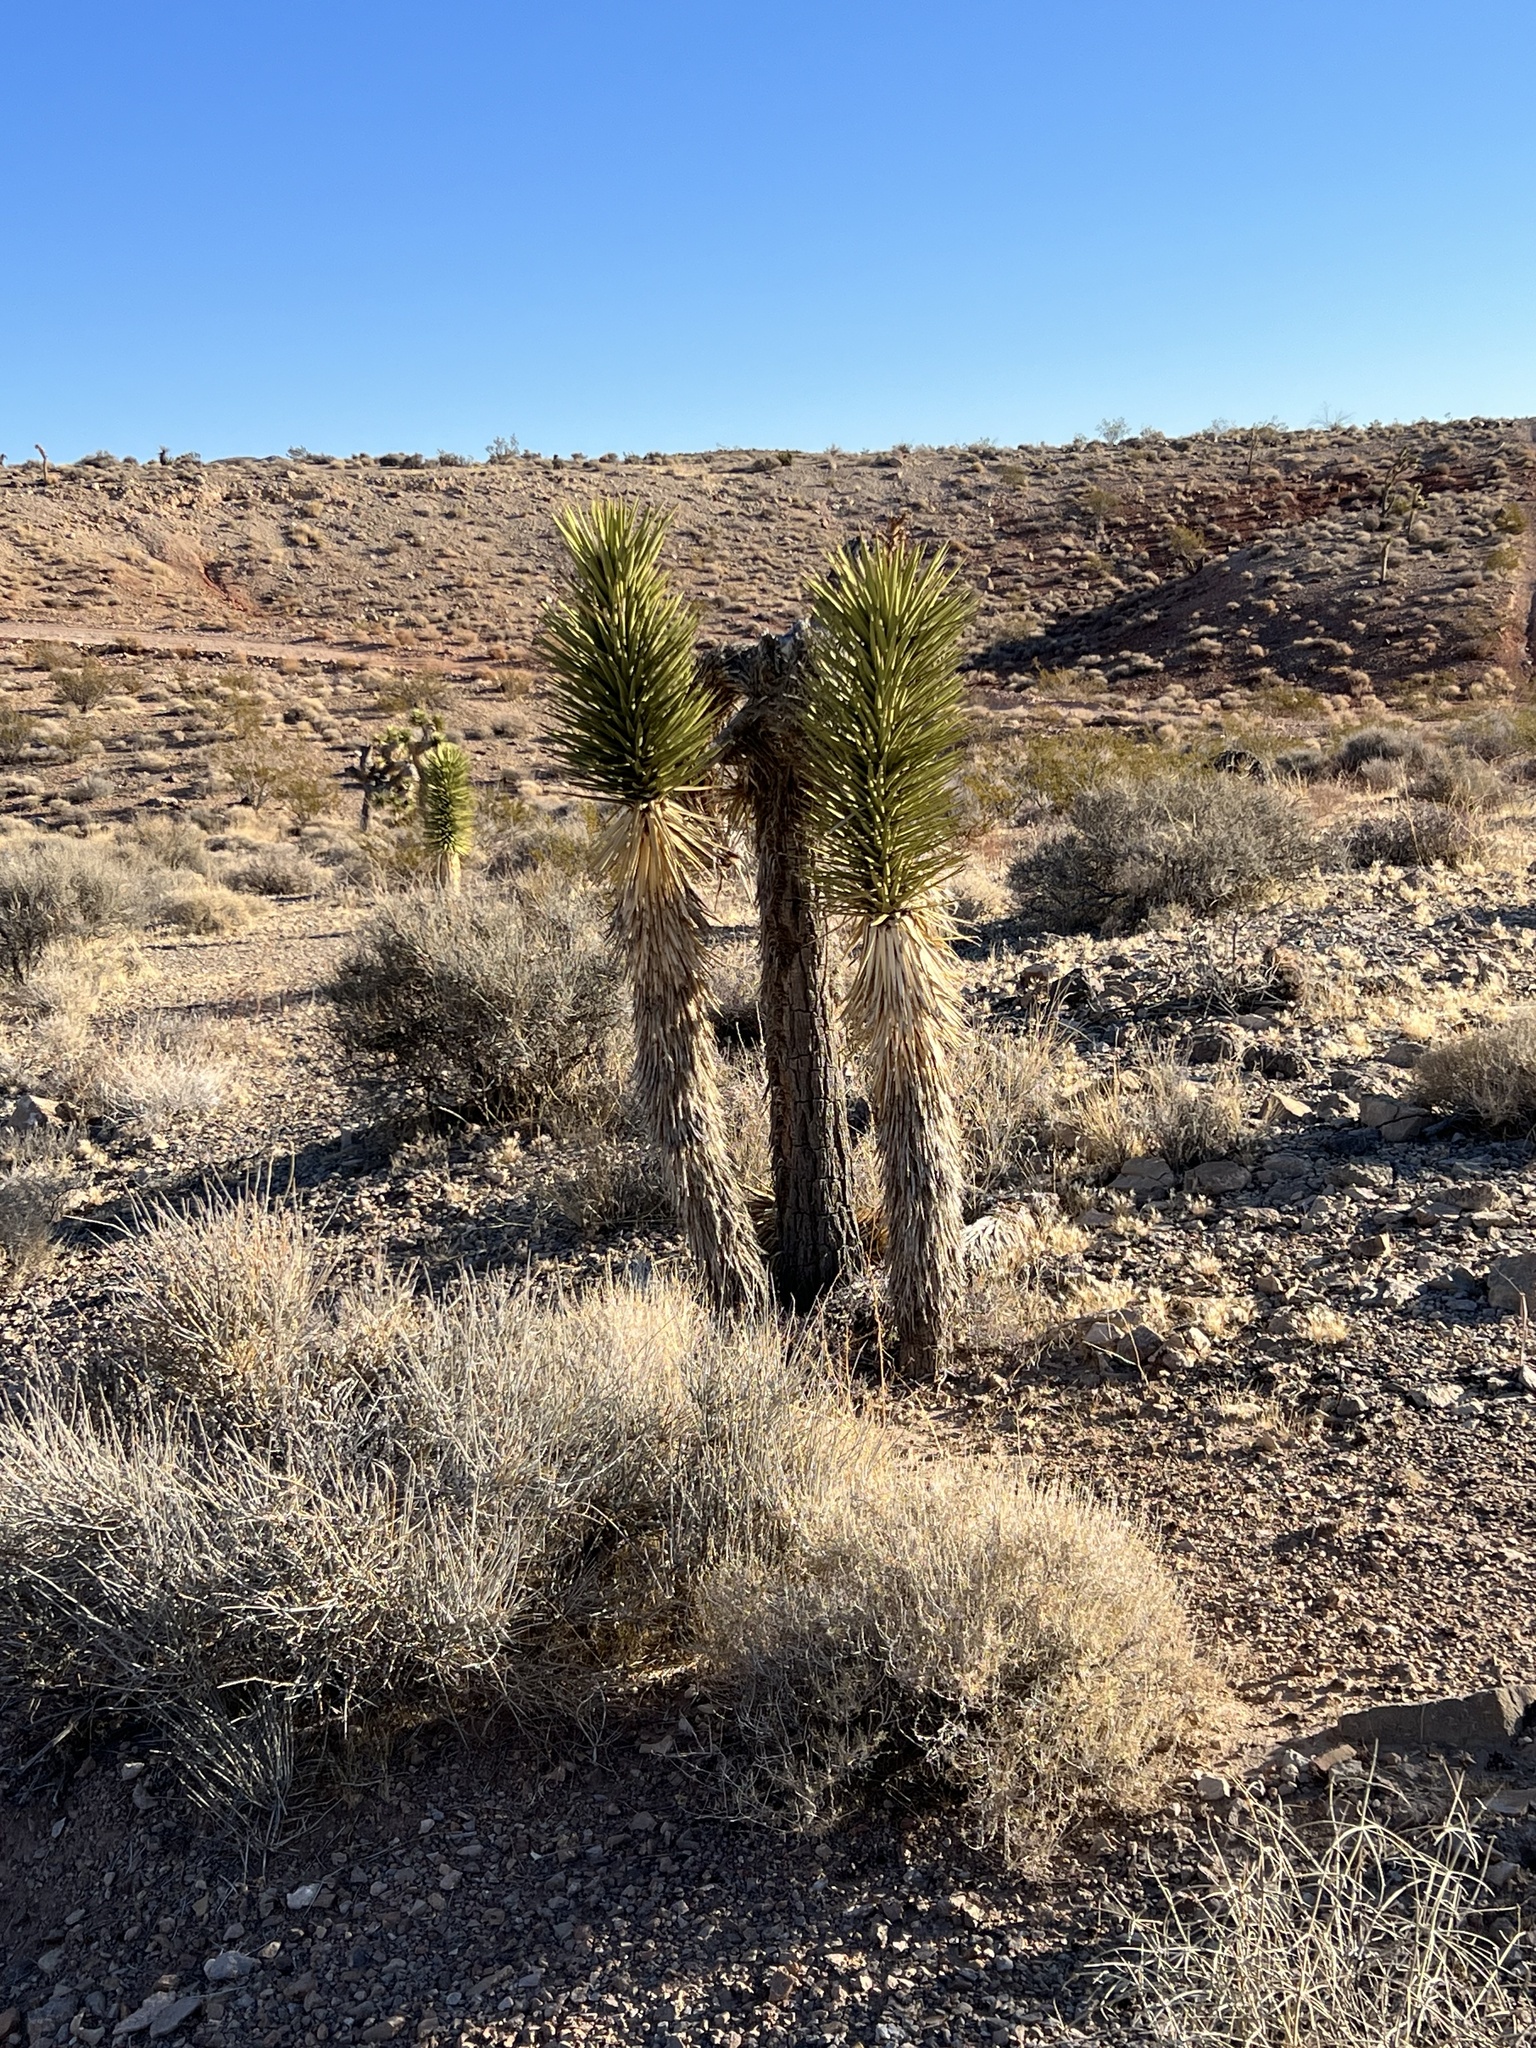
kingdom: Plantae
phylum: Tracheophyta
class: Liliopsida
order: Asparagales
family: Asparagaceae
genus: Yucca
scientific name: Yucca brevifolia
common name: Joshua tree
